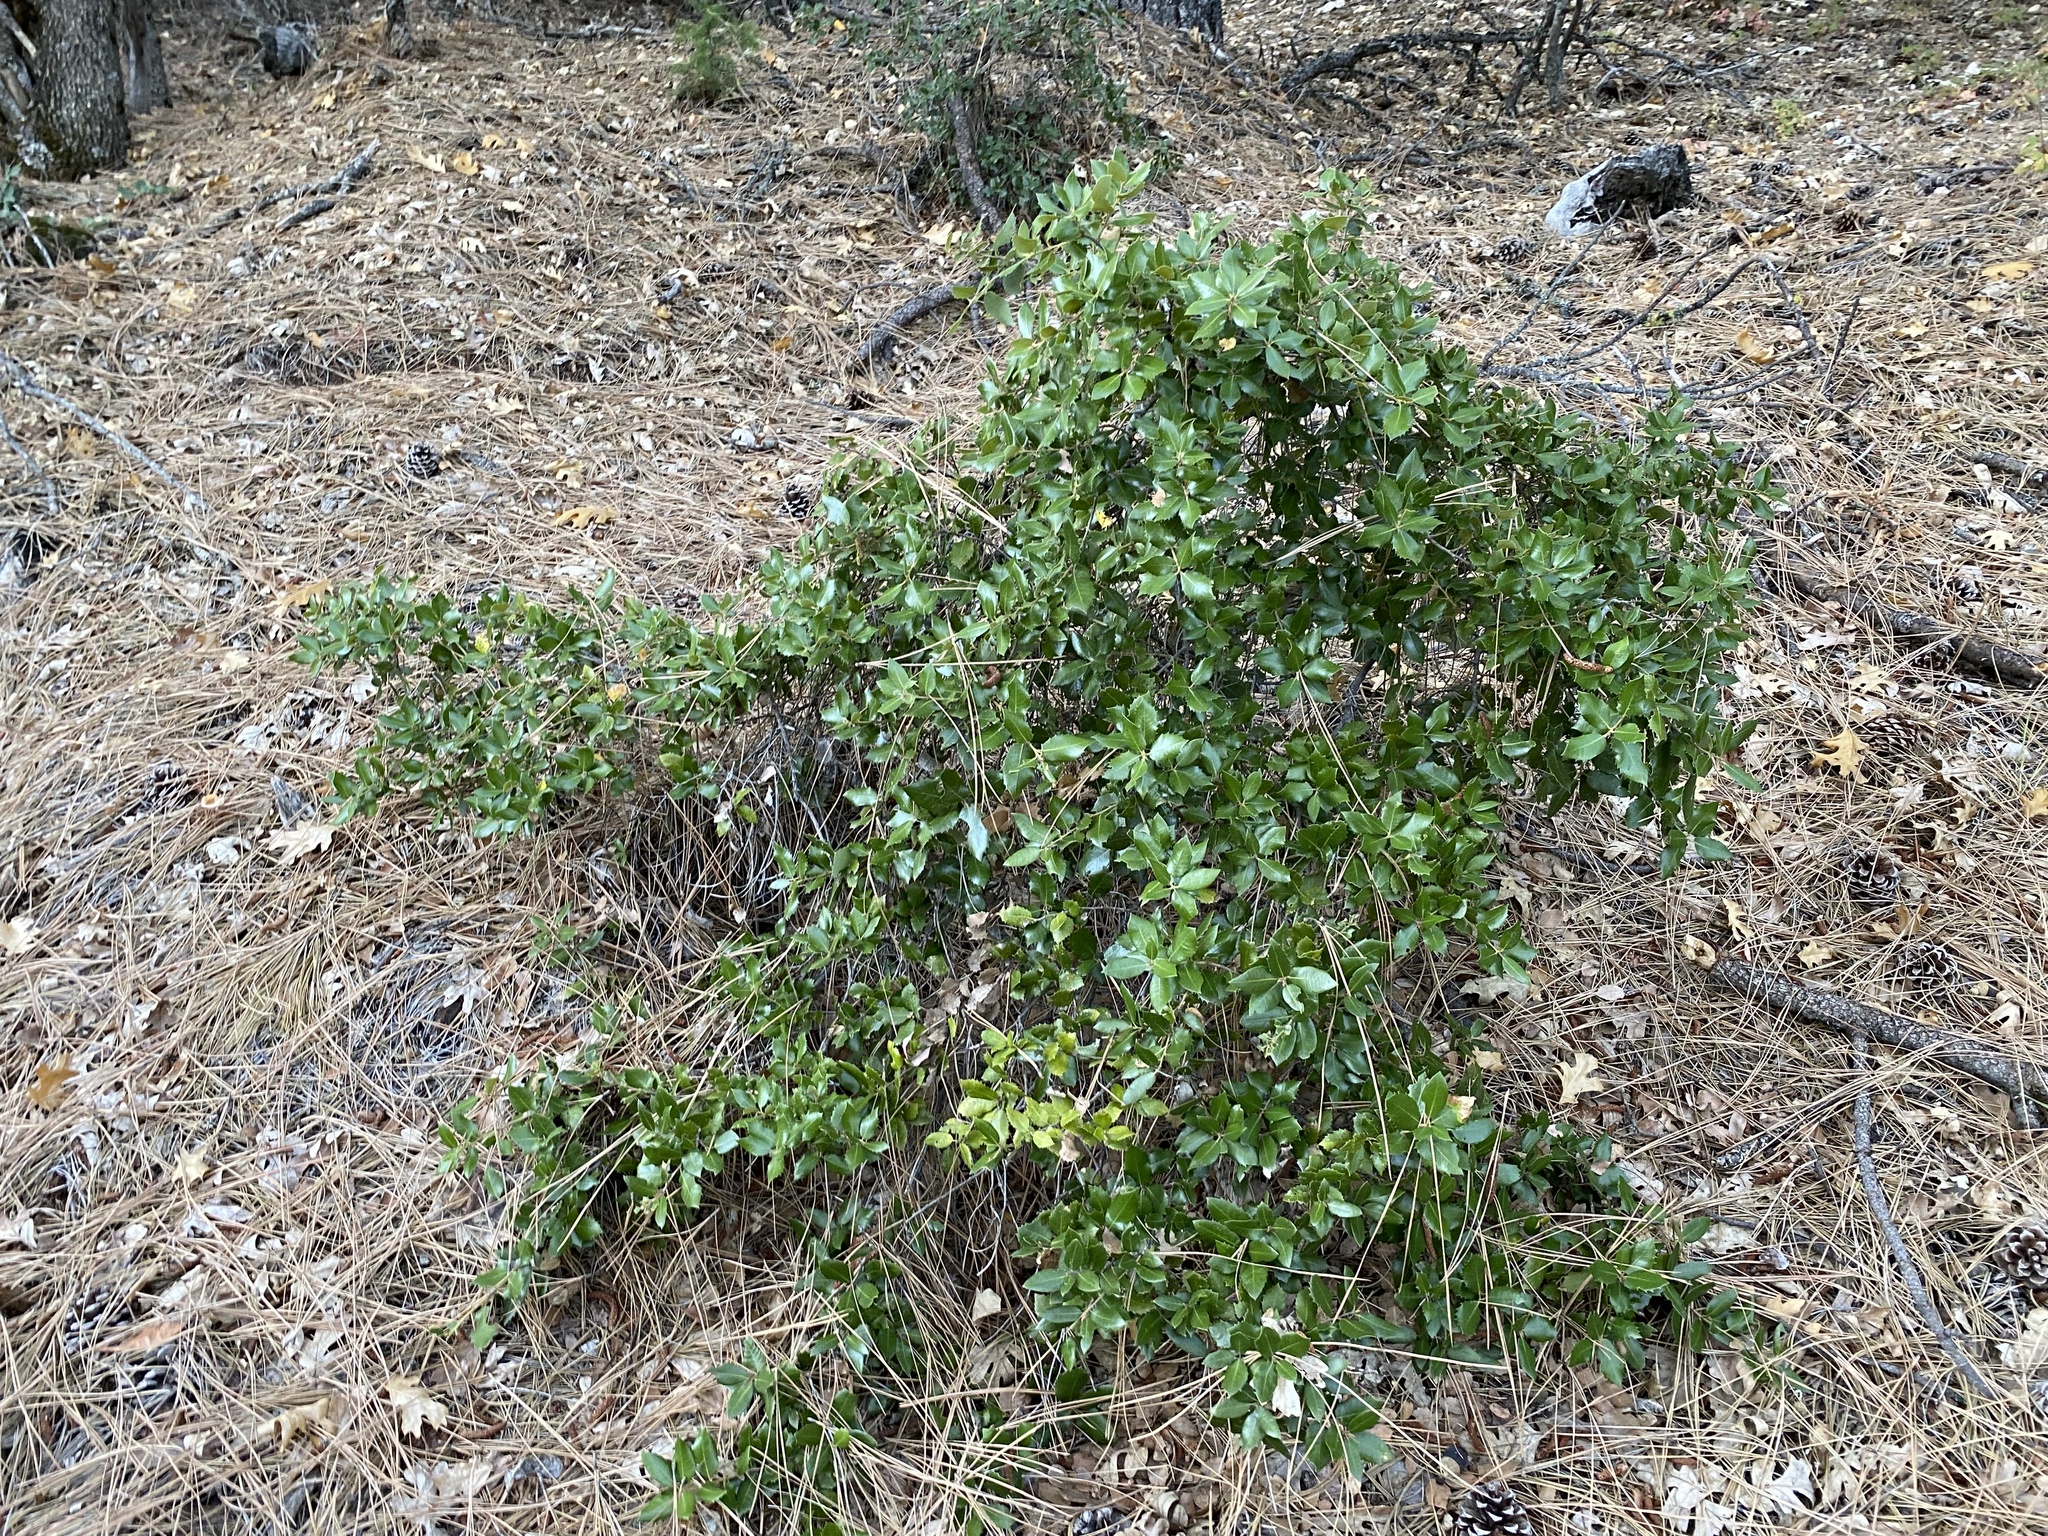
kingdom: Plantae
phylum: Tracheophyta
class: Magnoliopsida
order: Fagales
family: Fagaceae
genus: Quercus
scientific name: Quercus chrysolepis
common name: Canyon live oak
